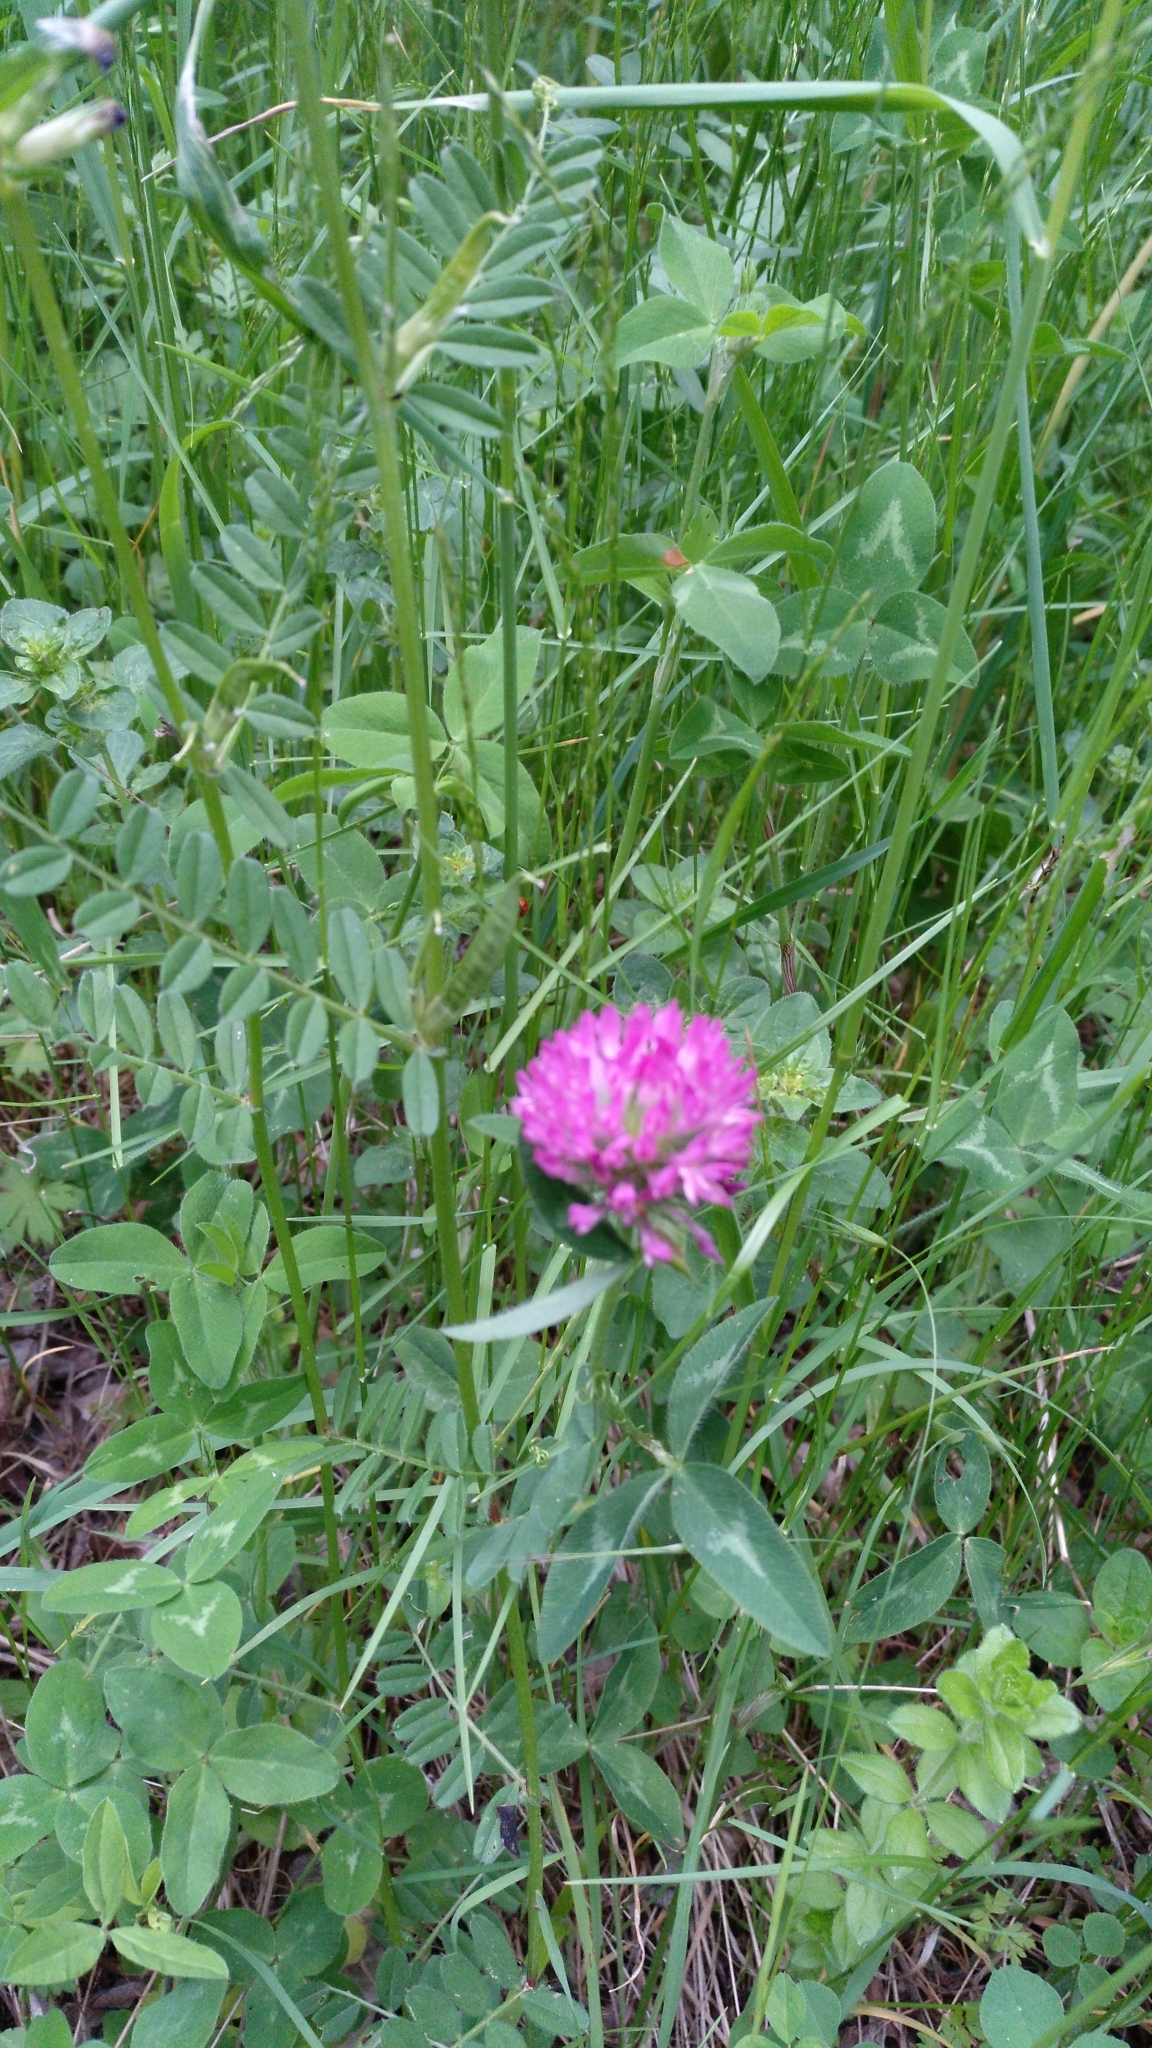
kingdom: Plantae
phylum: Tracheophyta
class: Magnoliopsida
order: Fabales
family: Fabaceae
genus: Trifolium
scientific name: Trifolium pratense
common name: Red clover
